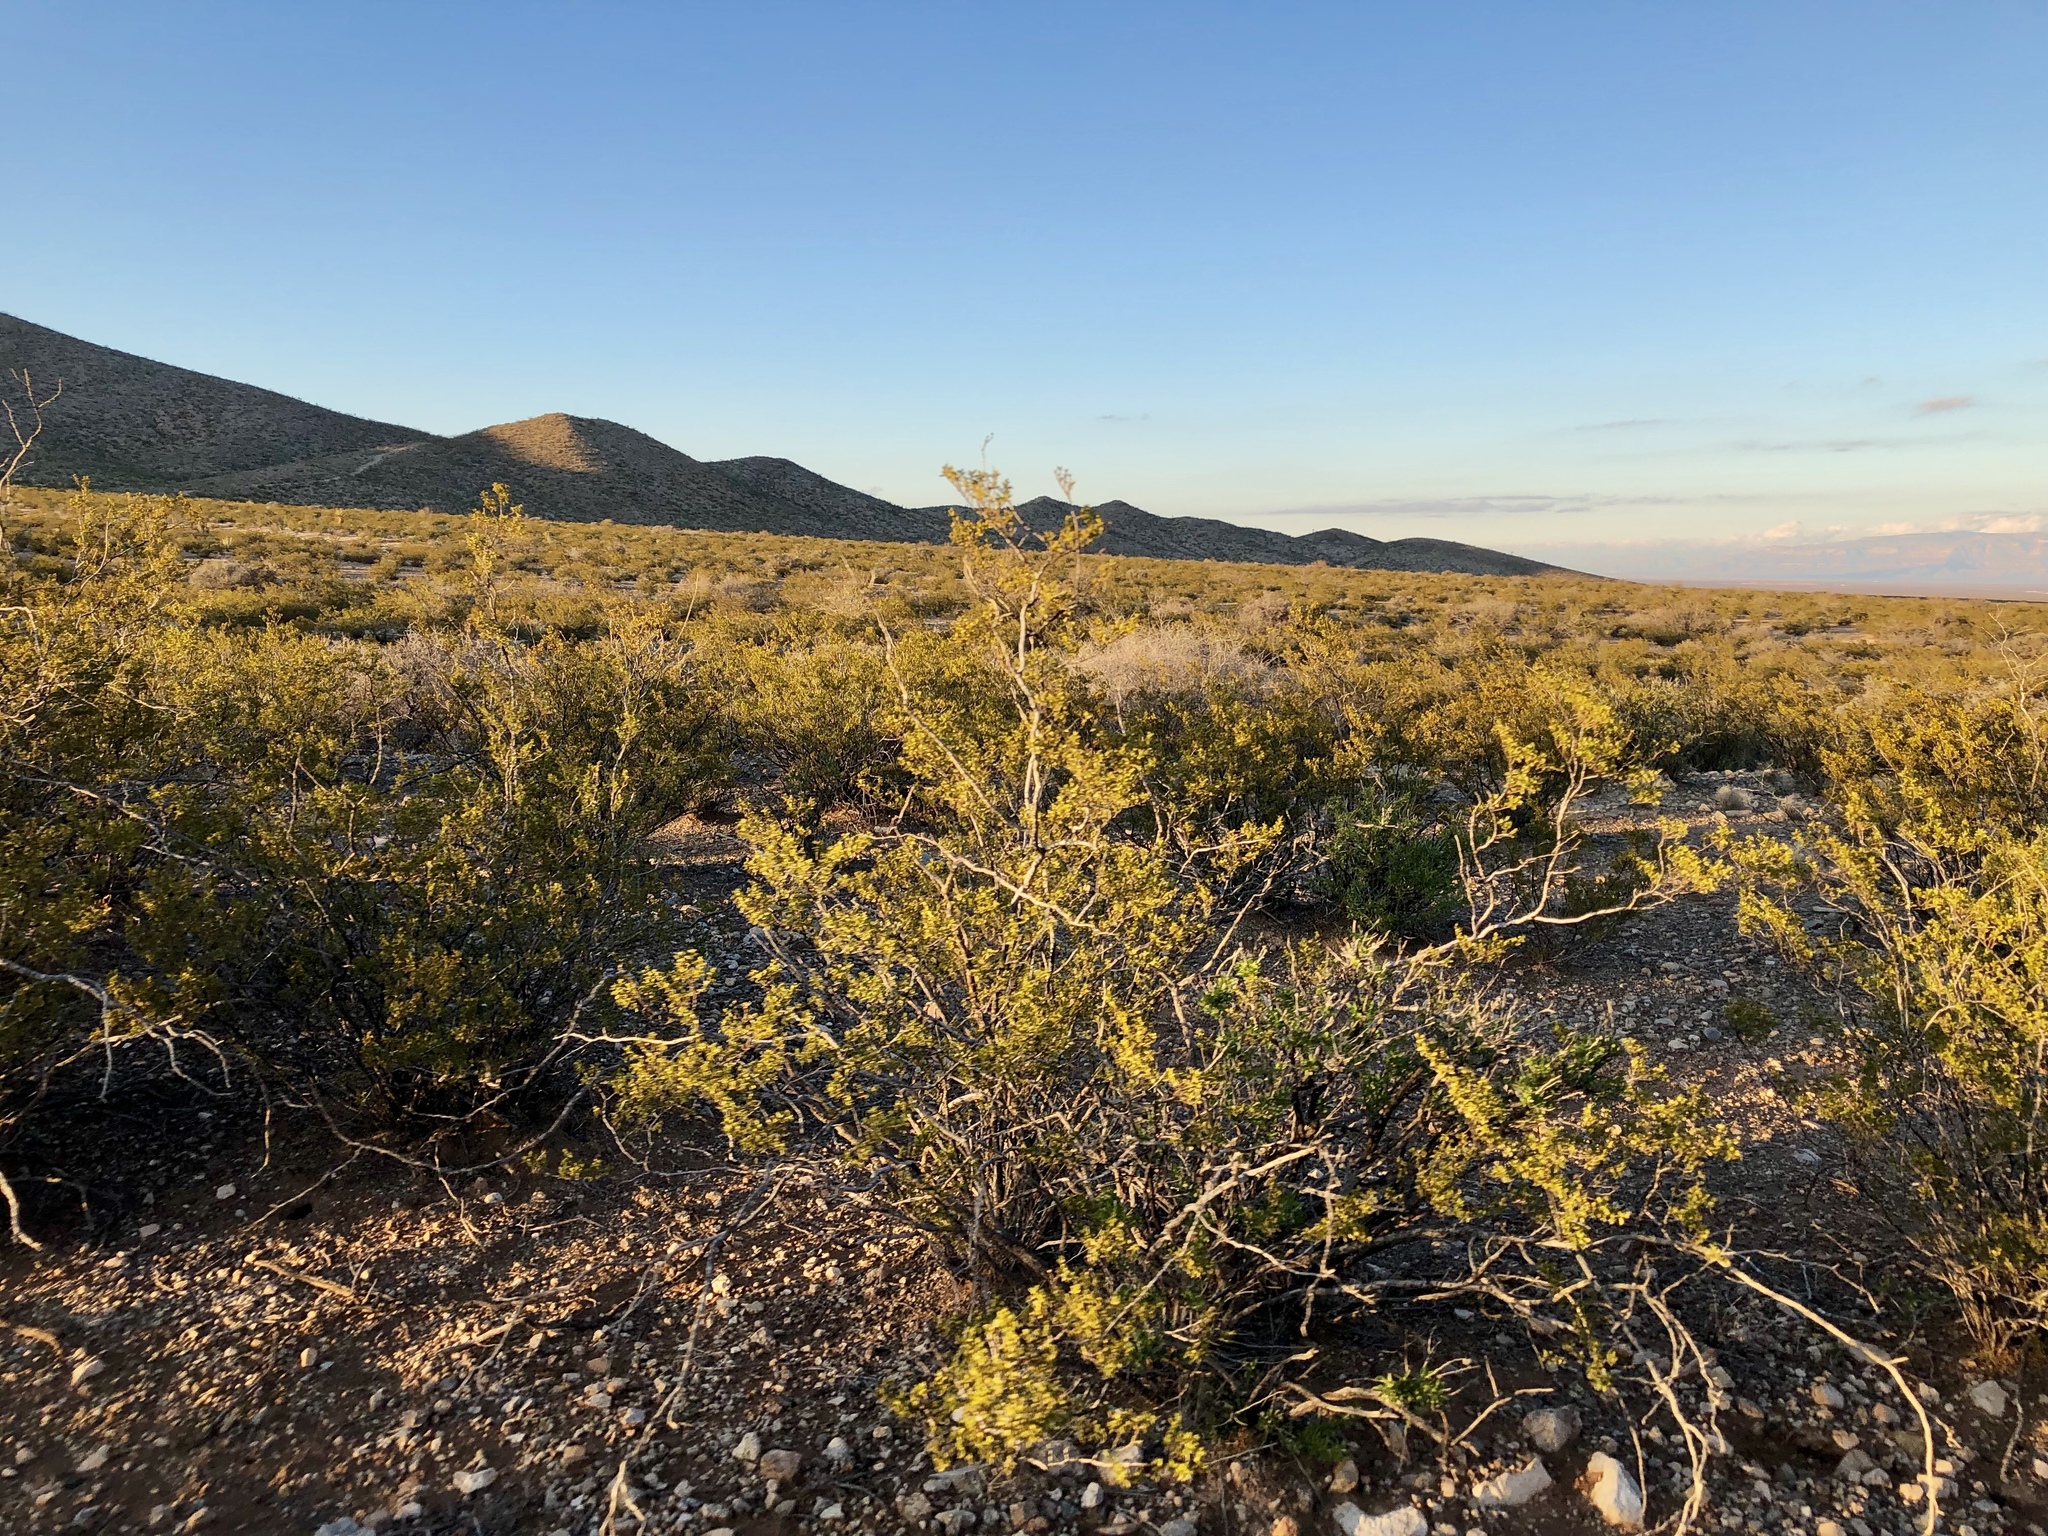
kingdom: Plantae
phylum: Tracheophyta
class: Magnoliopsida
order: Zygophyllales
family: Zygophyllaceae
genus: Larrea
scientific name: Larrea tridentata
